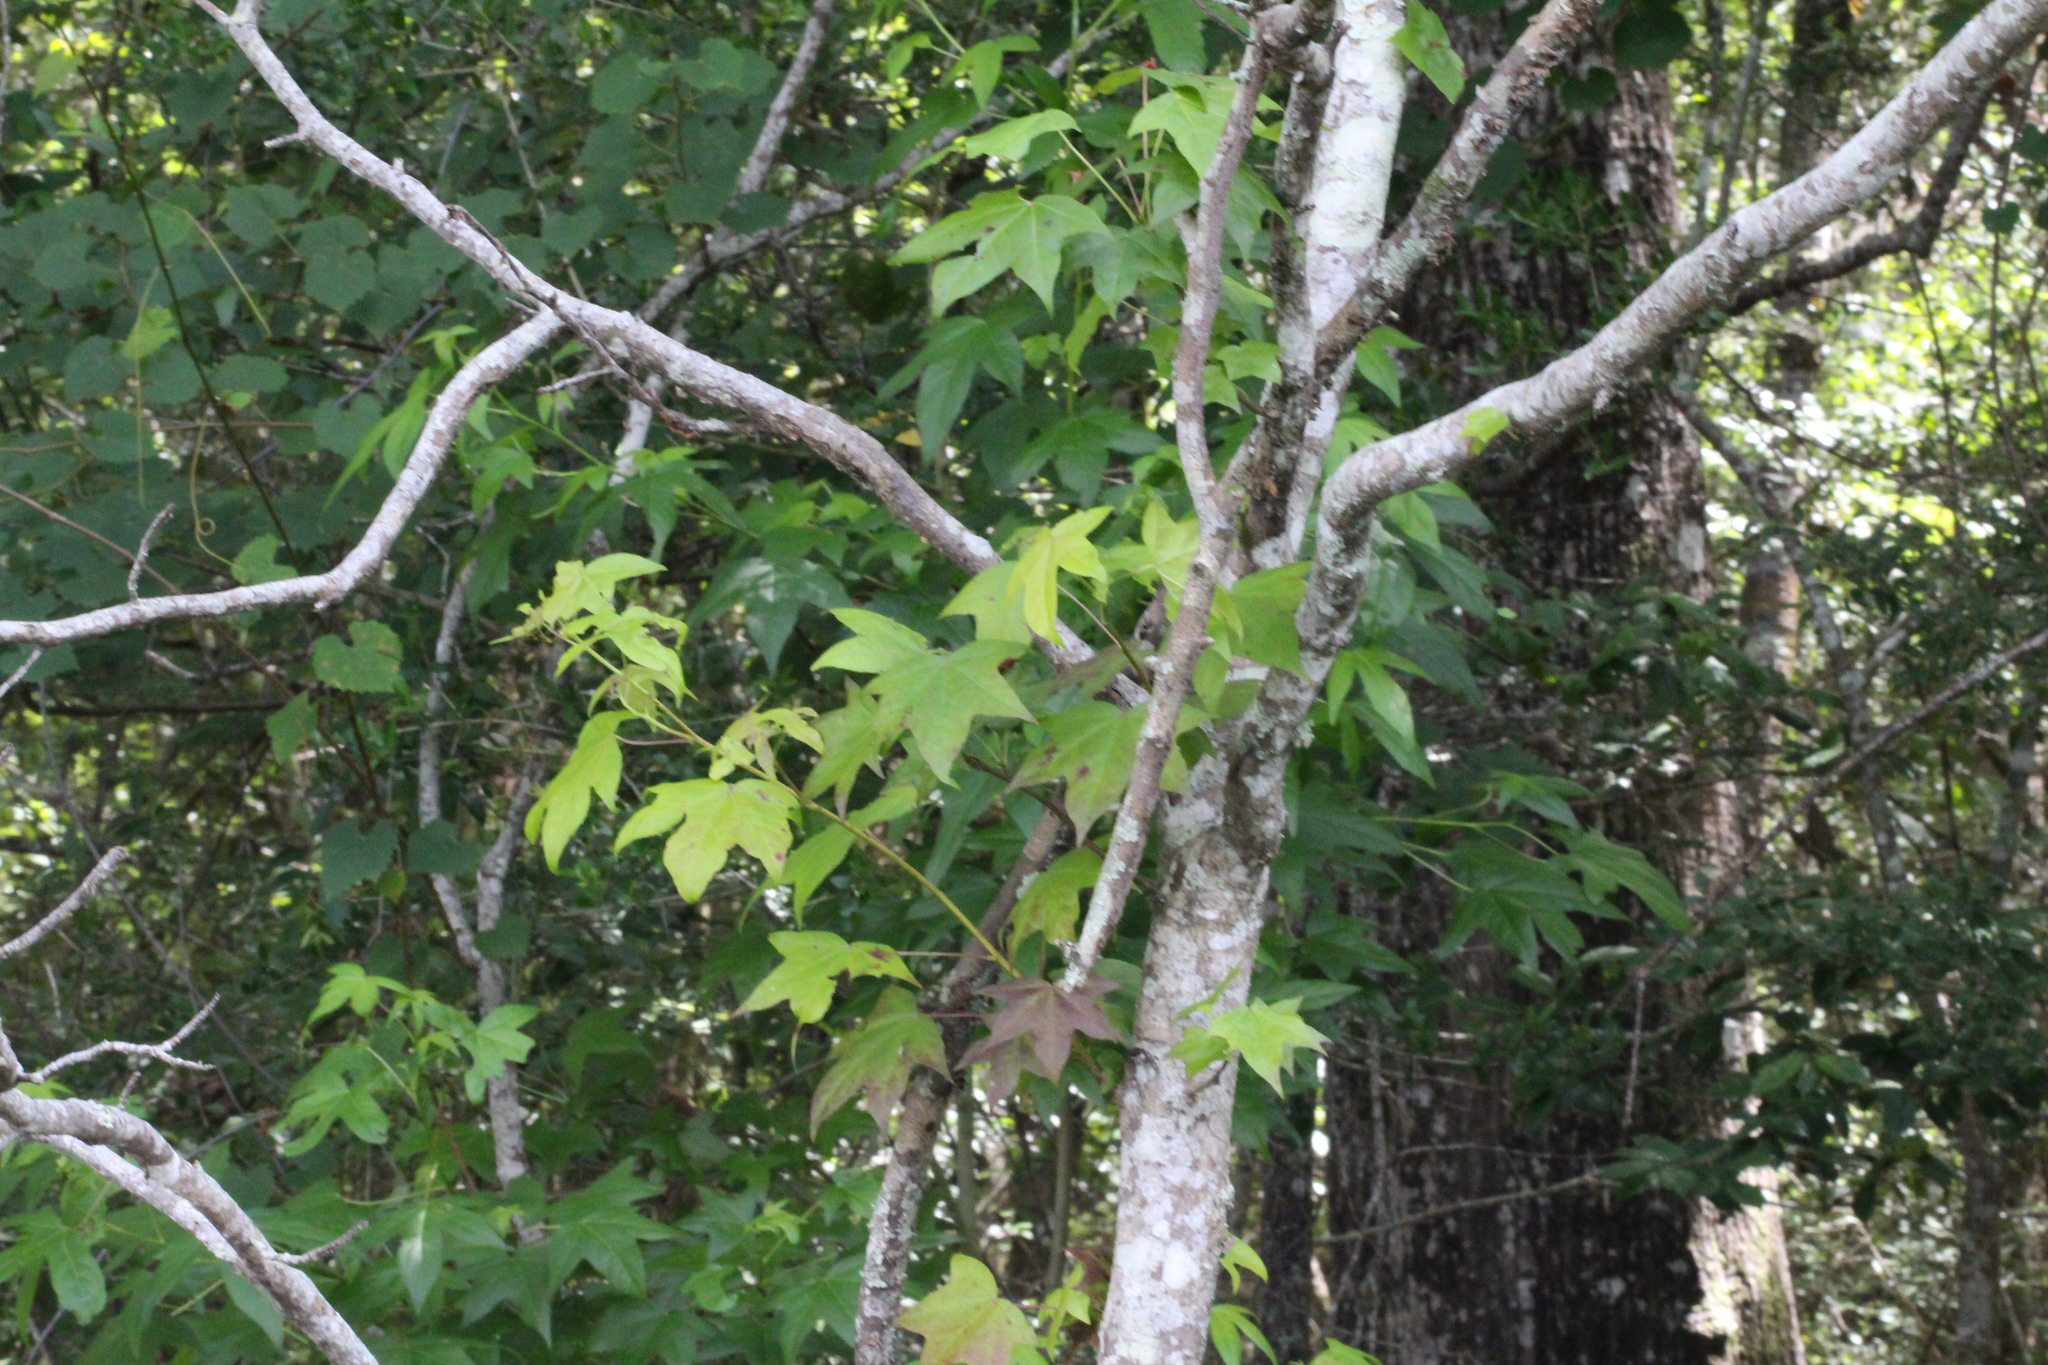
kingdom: Plantae
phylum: Tracheophyta
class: Magnoliopsida
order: Saxifragales
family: Altingiaceae
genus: Liquidambar
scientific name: Liquidambar styraciflua
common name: Sweet gum
